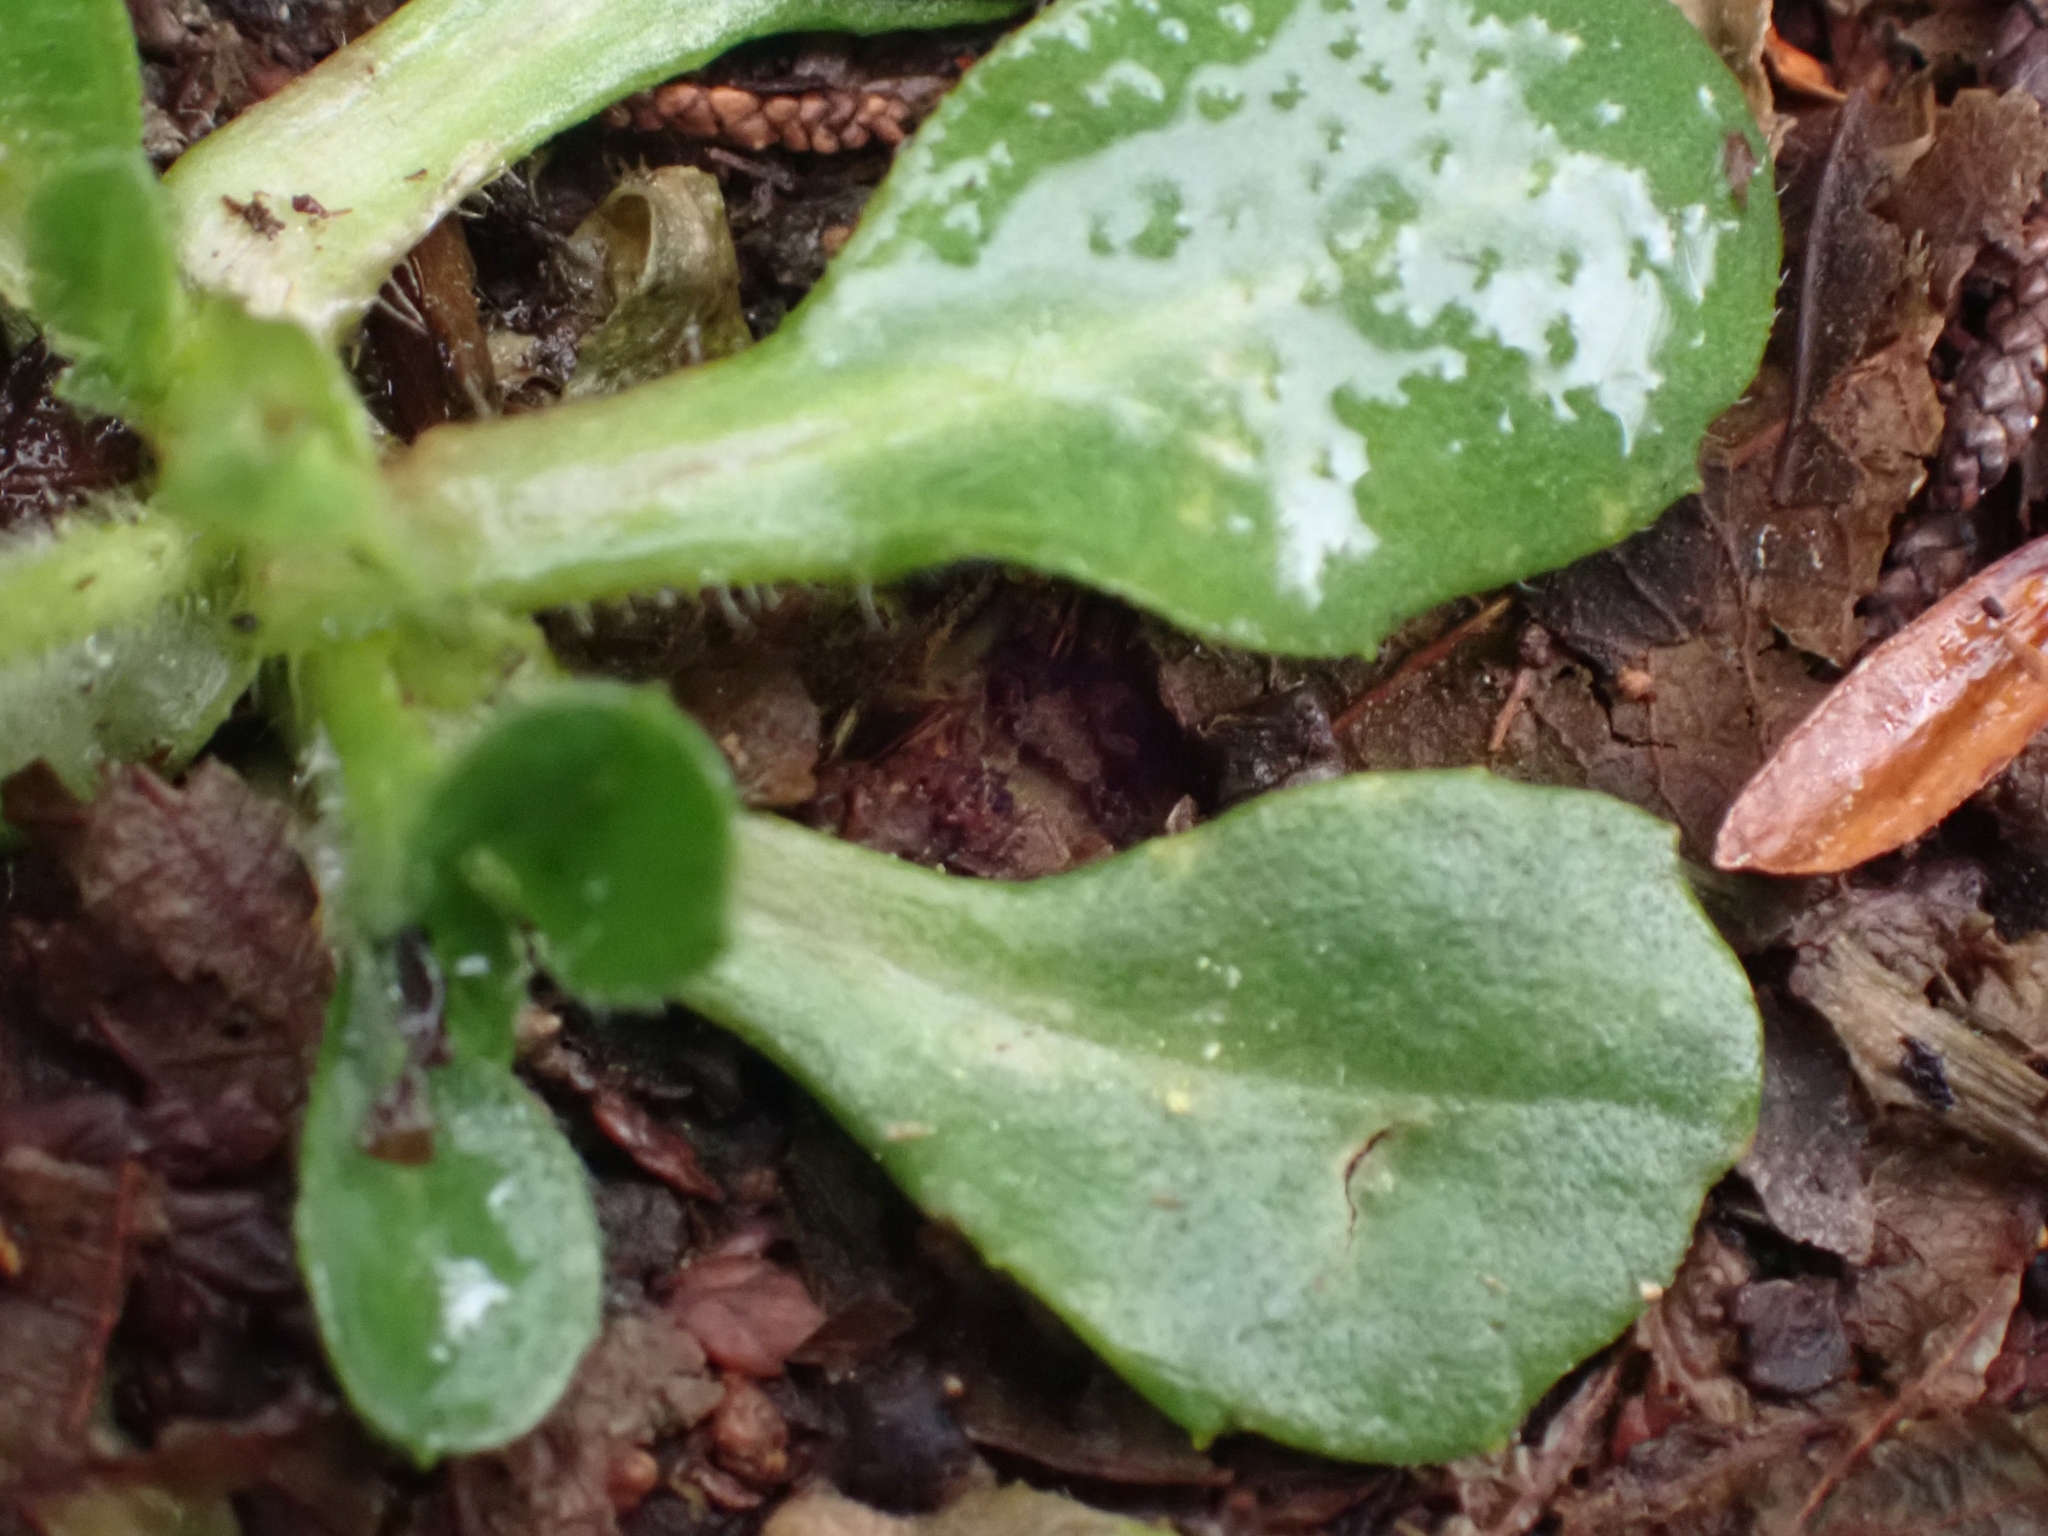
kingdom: Plantae
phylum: Tracheophyta
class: Magnoliopsida
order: Asterales
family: Asteraceae
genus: Bellis
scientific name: Bellis perennis
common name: Lawndaisy
